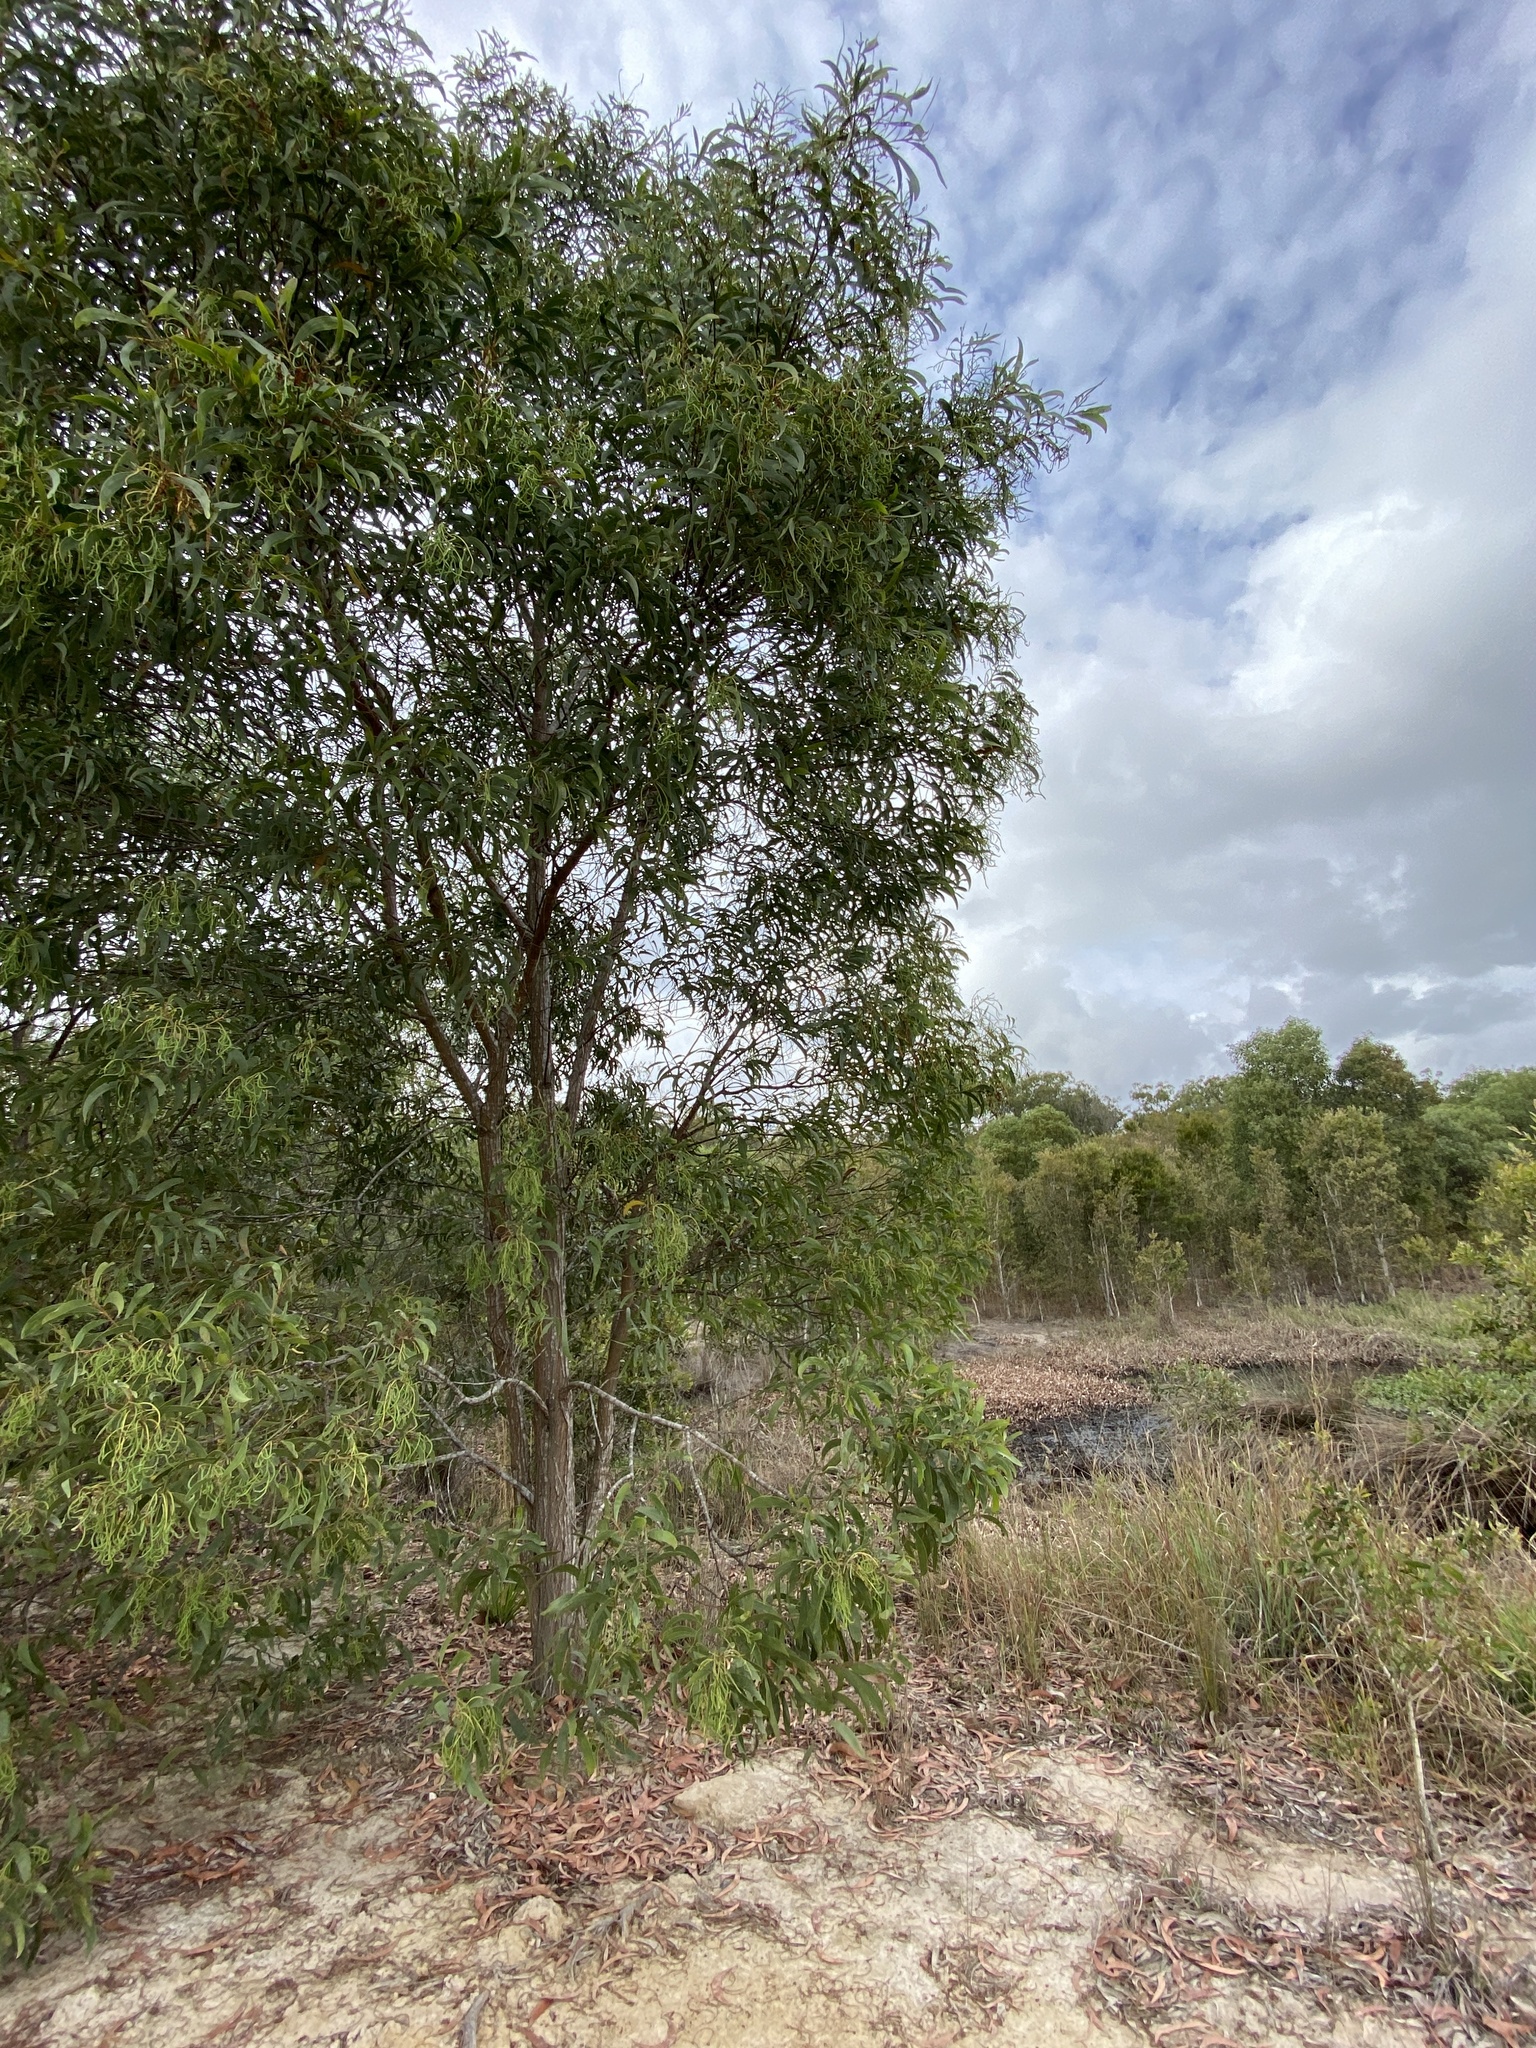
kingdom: Plantae
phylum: Tracheophyta
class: Magnoliopsida
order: Fabales
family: Fabaceae
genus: Acacia
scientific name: Acacia leiocalyx
